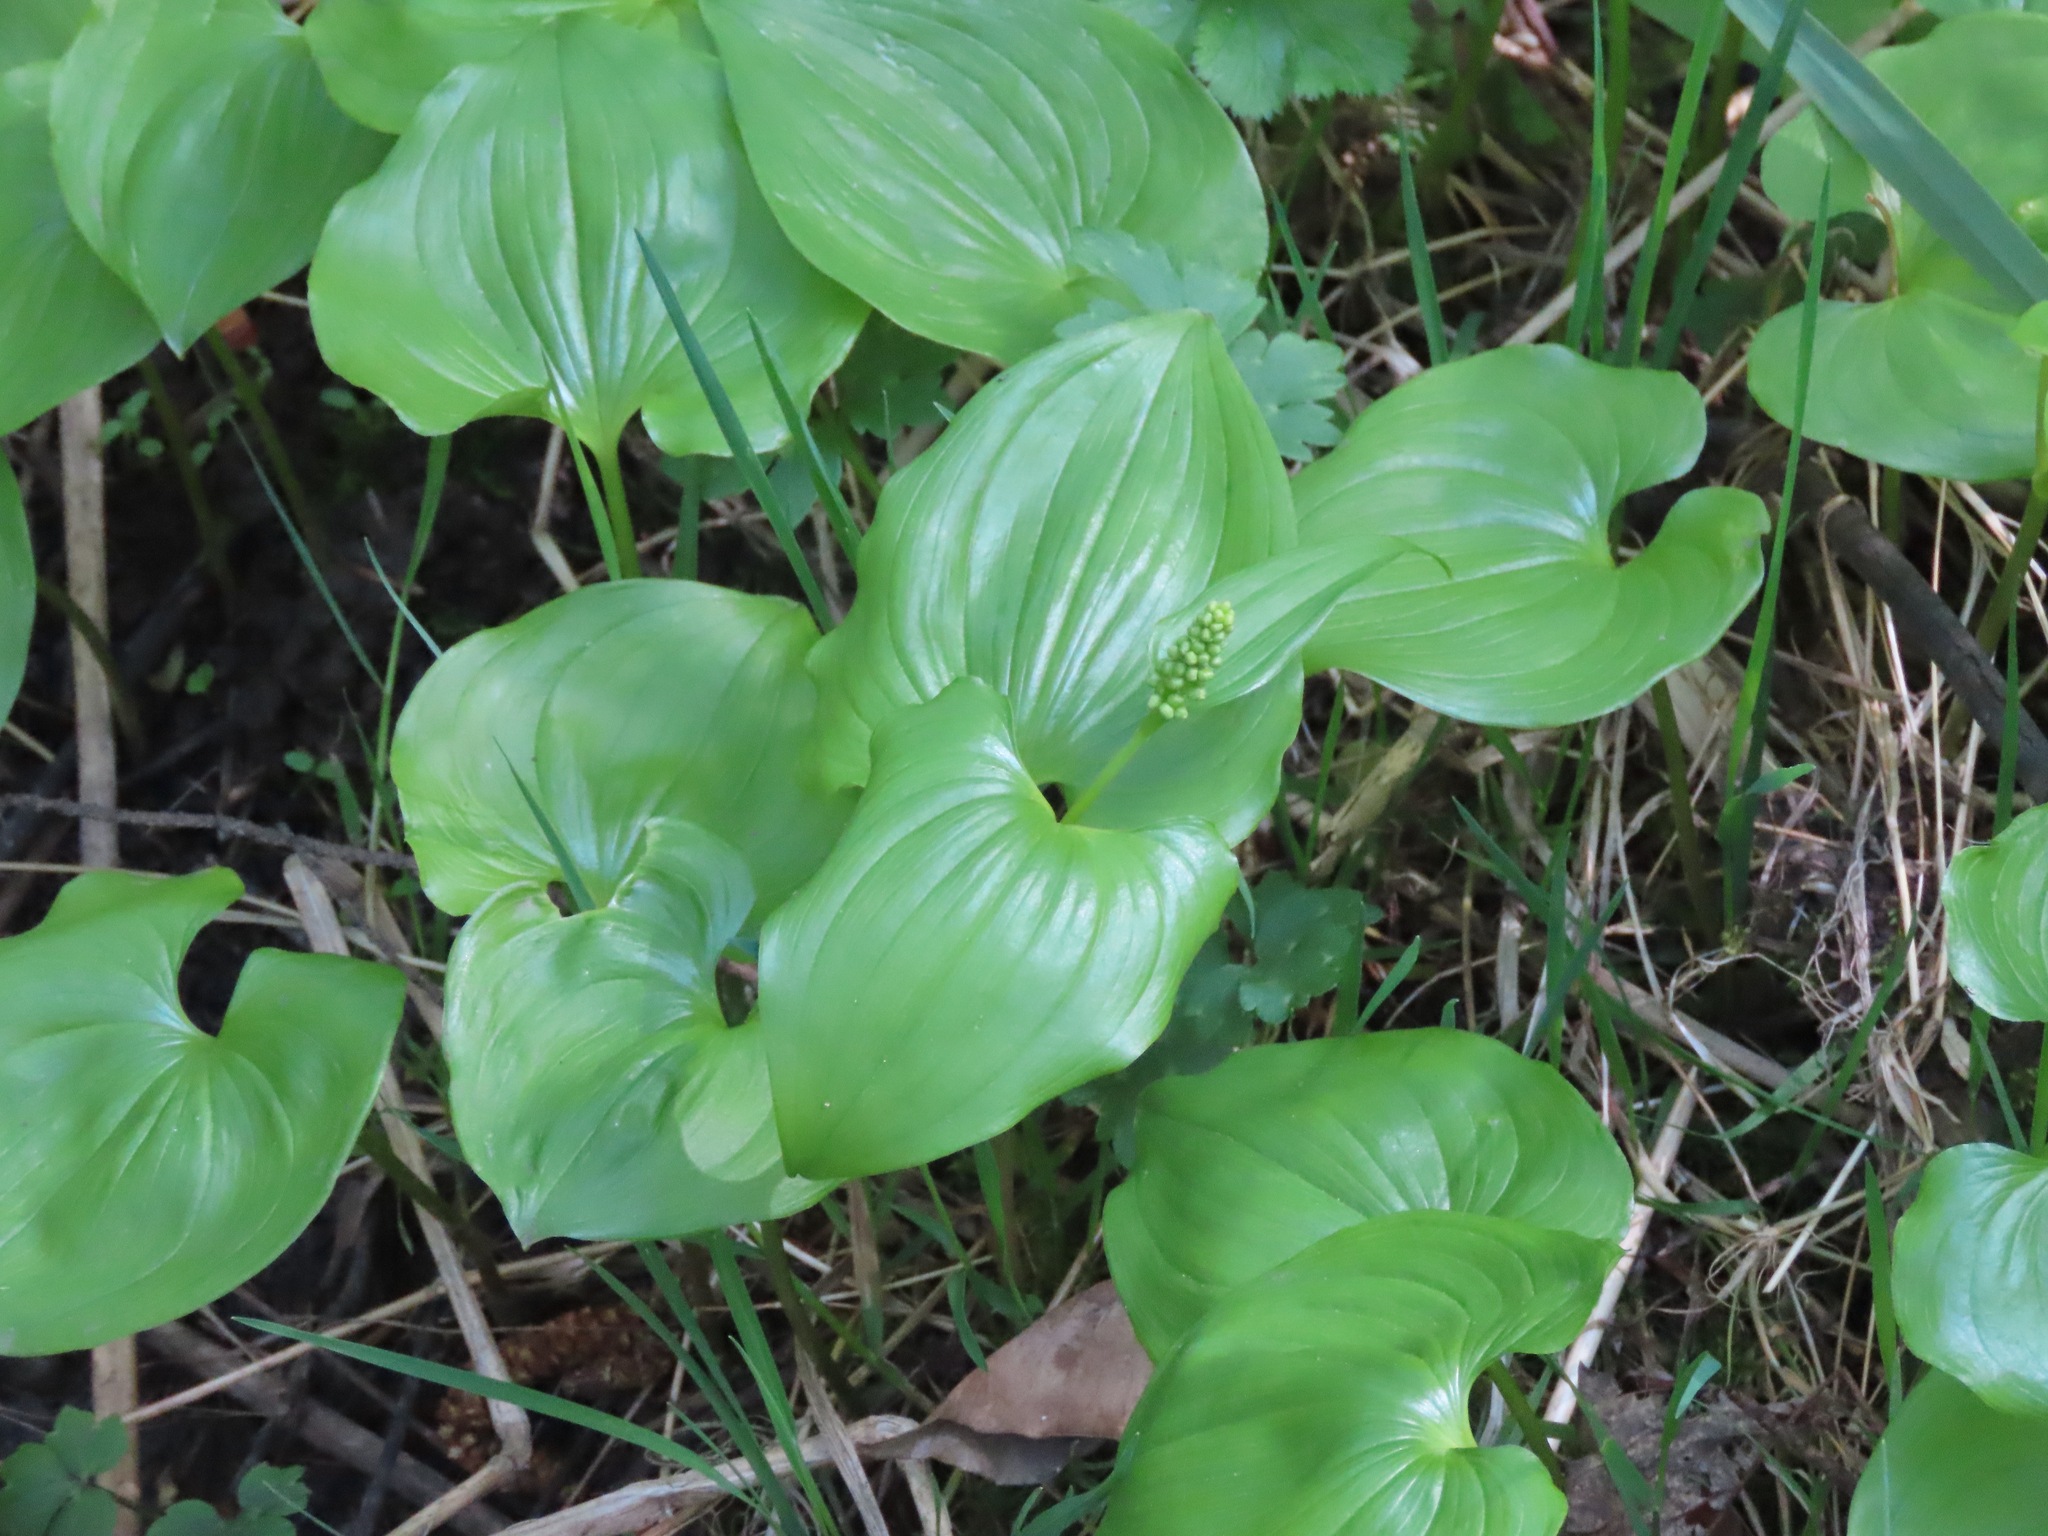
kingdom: Plantae
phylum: Tracheophyta
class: Liliopsida
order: Asparagales
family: Asparagaceae
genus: Maianthemum
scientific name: Maianthemum dilatatum
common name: False lily-of-the-valley
